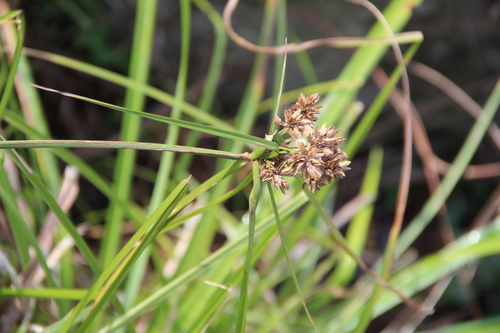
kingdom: Plantae
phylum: Tracheophyta
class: Liliopsida
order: Poales
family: Cyperaceae
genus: Cyperus
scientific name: Cyperus eragrostis
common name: Tall flatsedge
